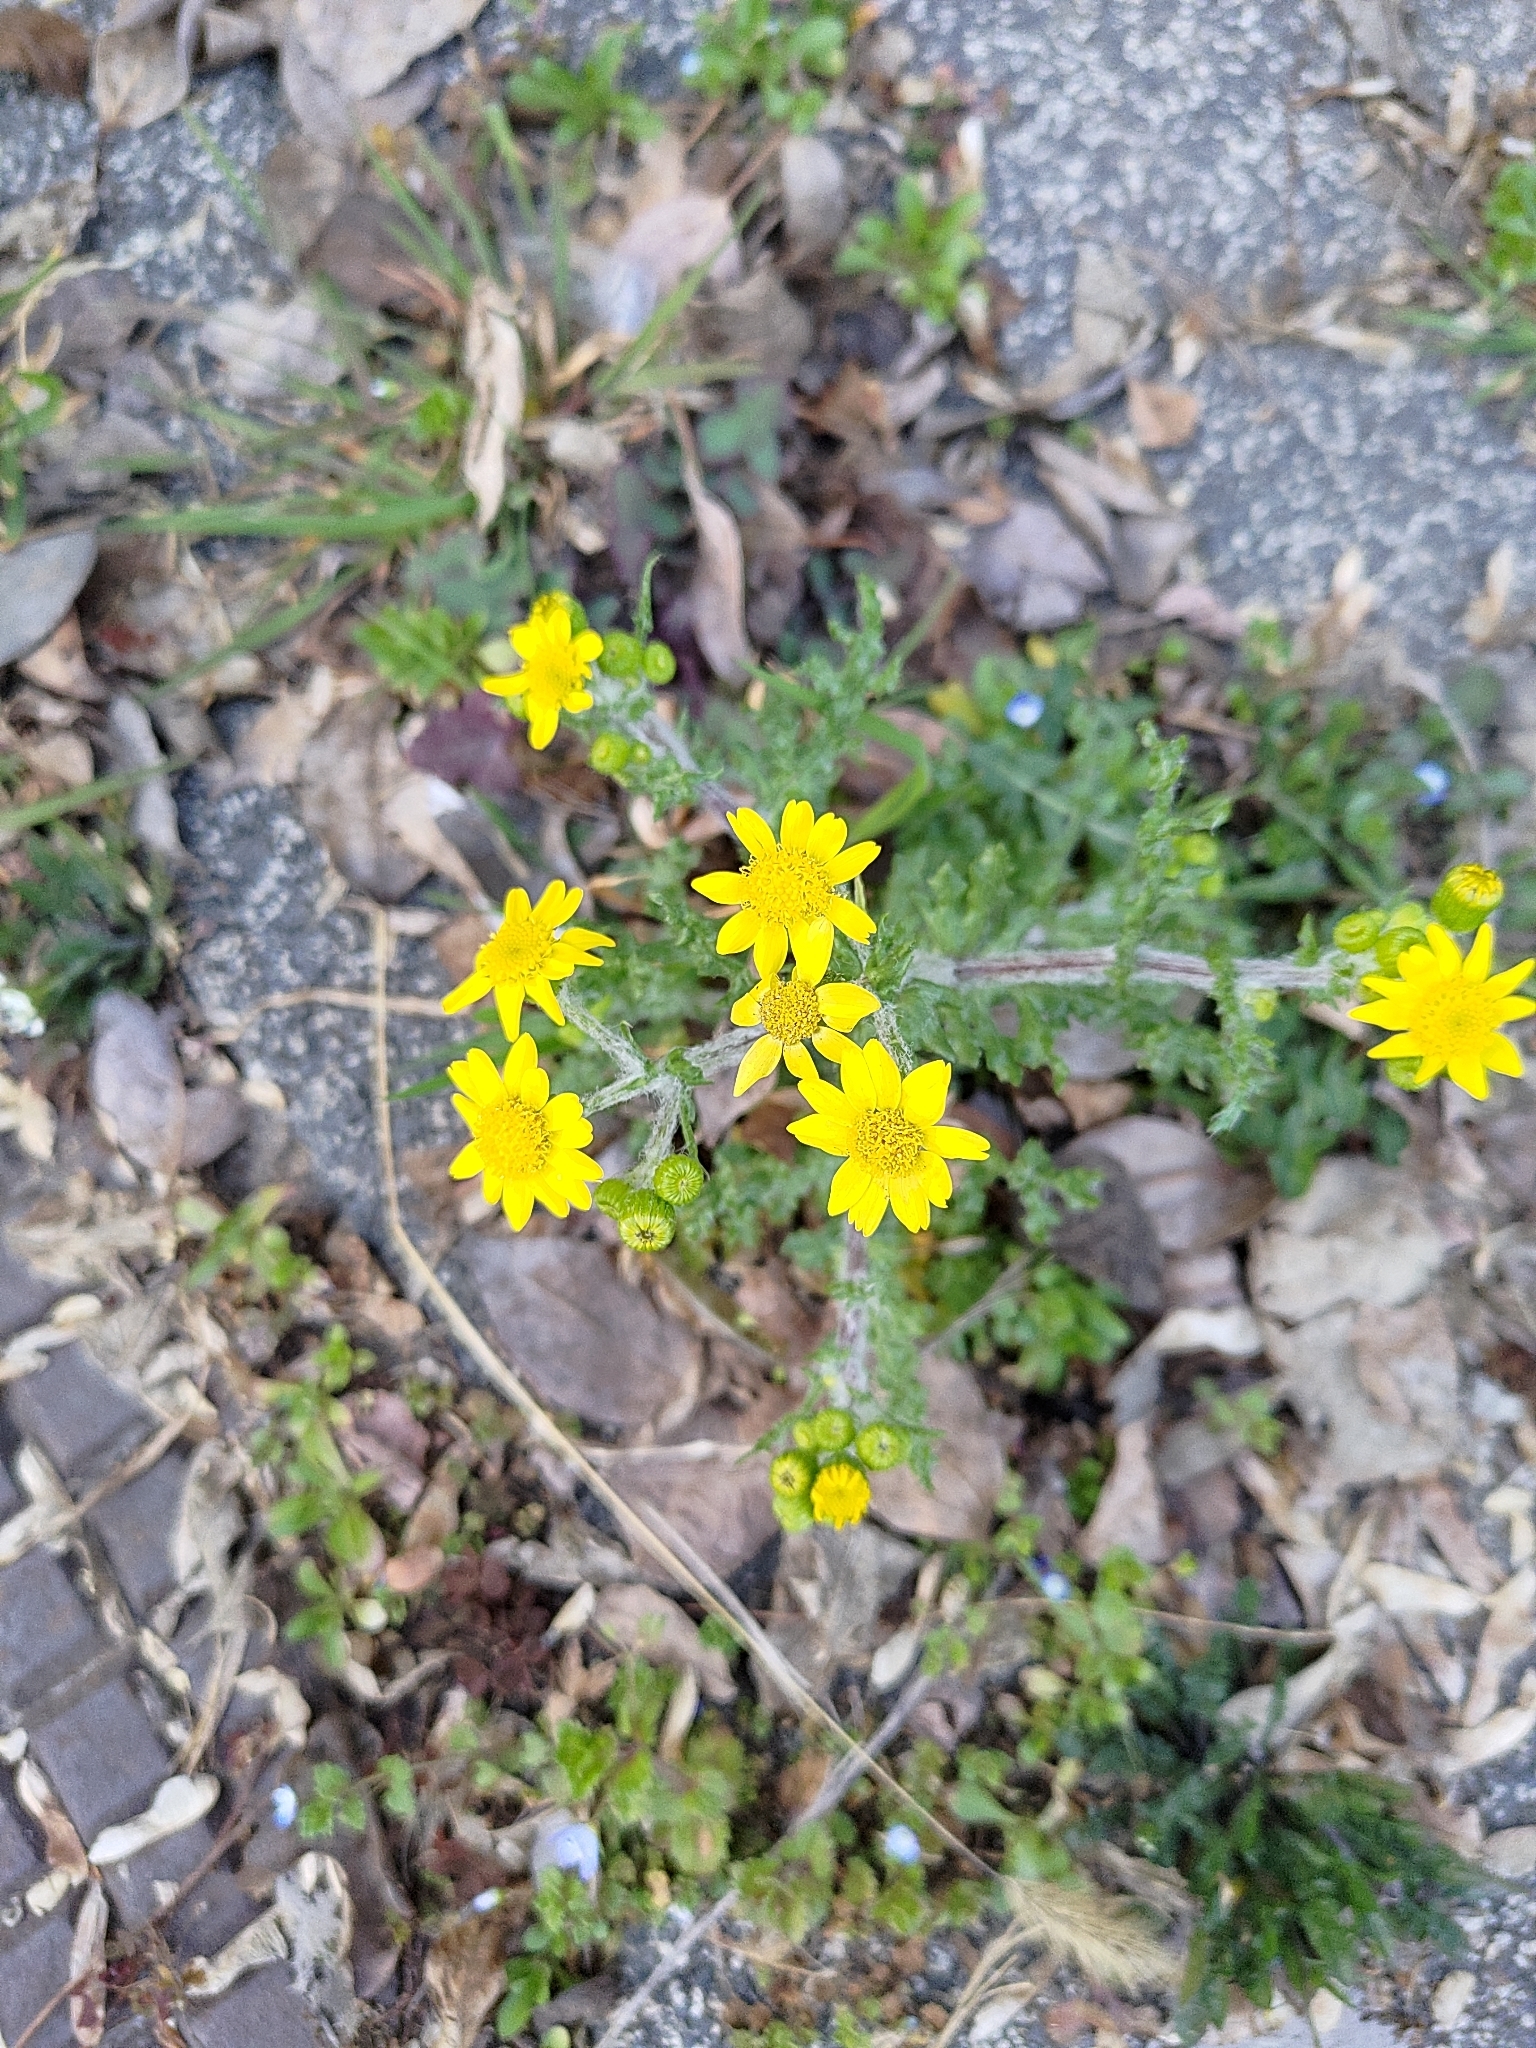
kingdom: Plantae
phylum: Tracheophyta
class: Magnoliopsida
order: Asterales
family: Asteraceae
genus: Senecio
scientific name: Senecio vernalis
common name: Eastern groundsel
